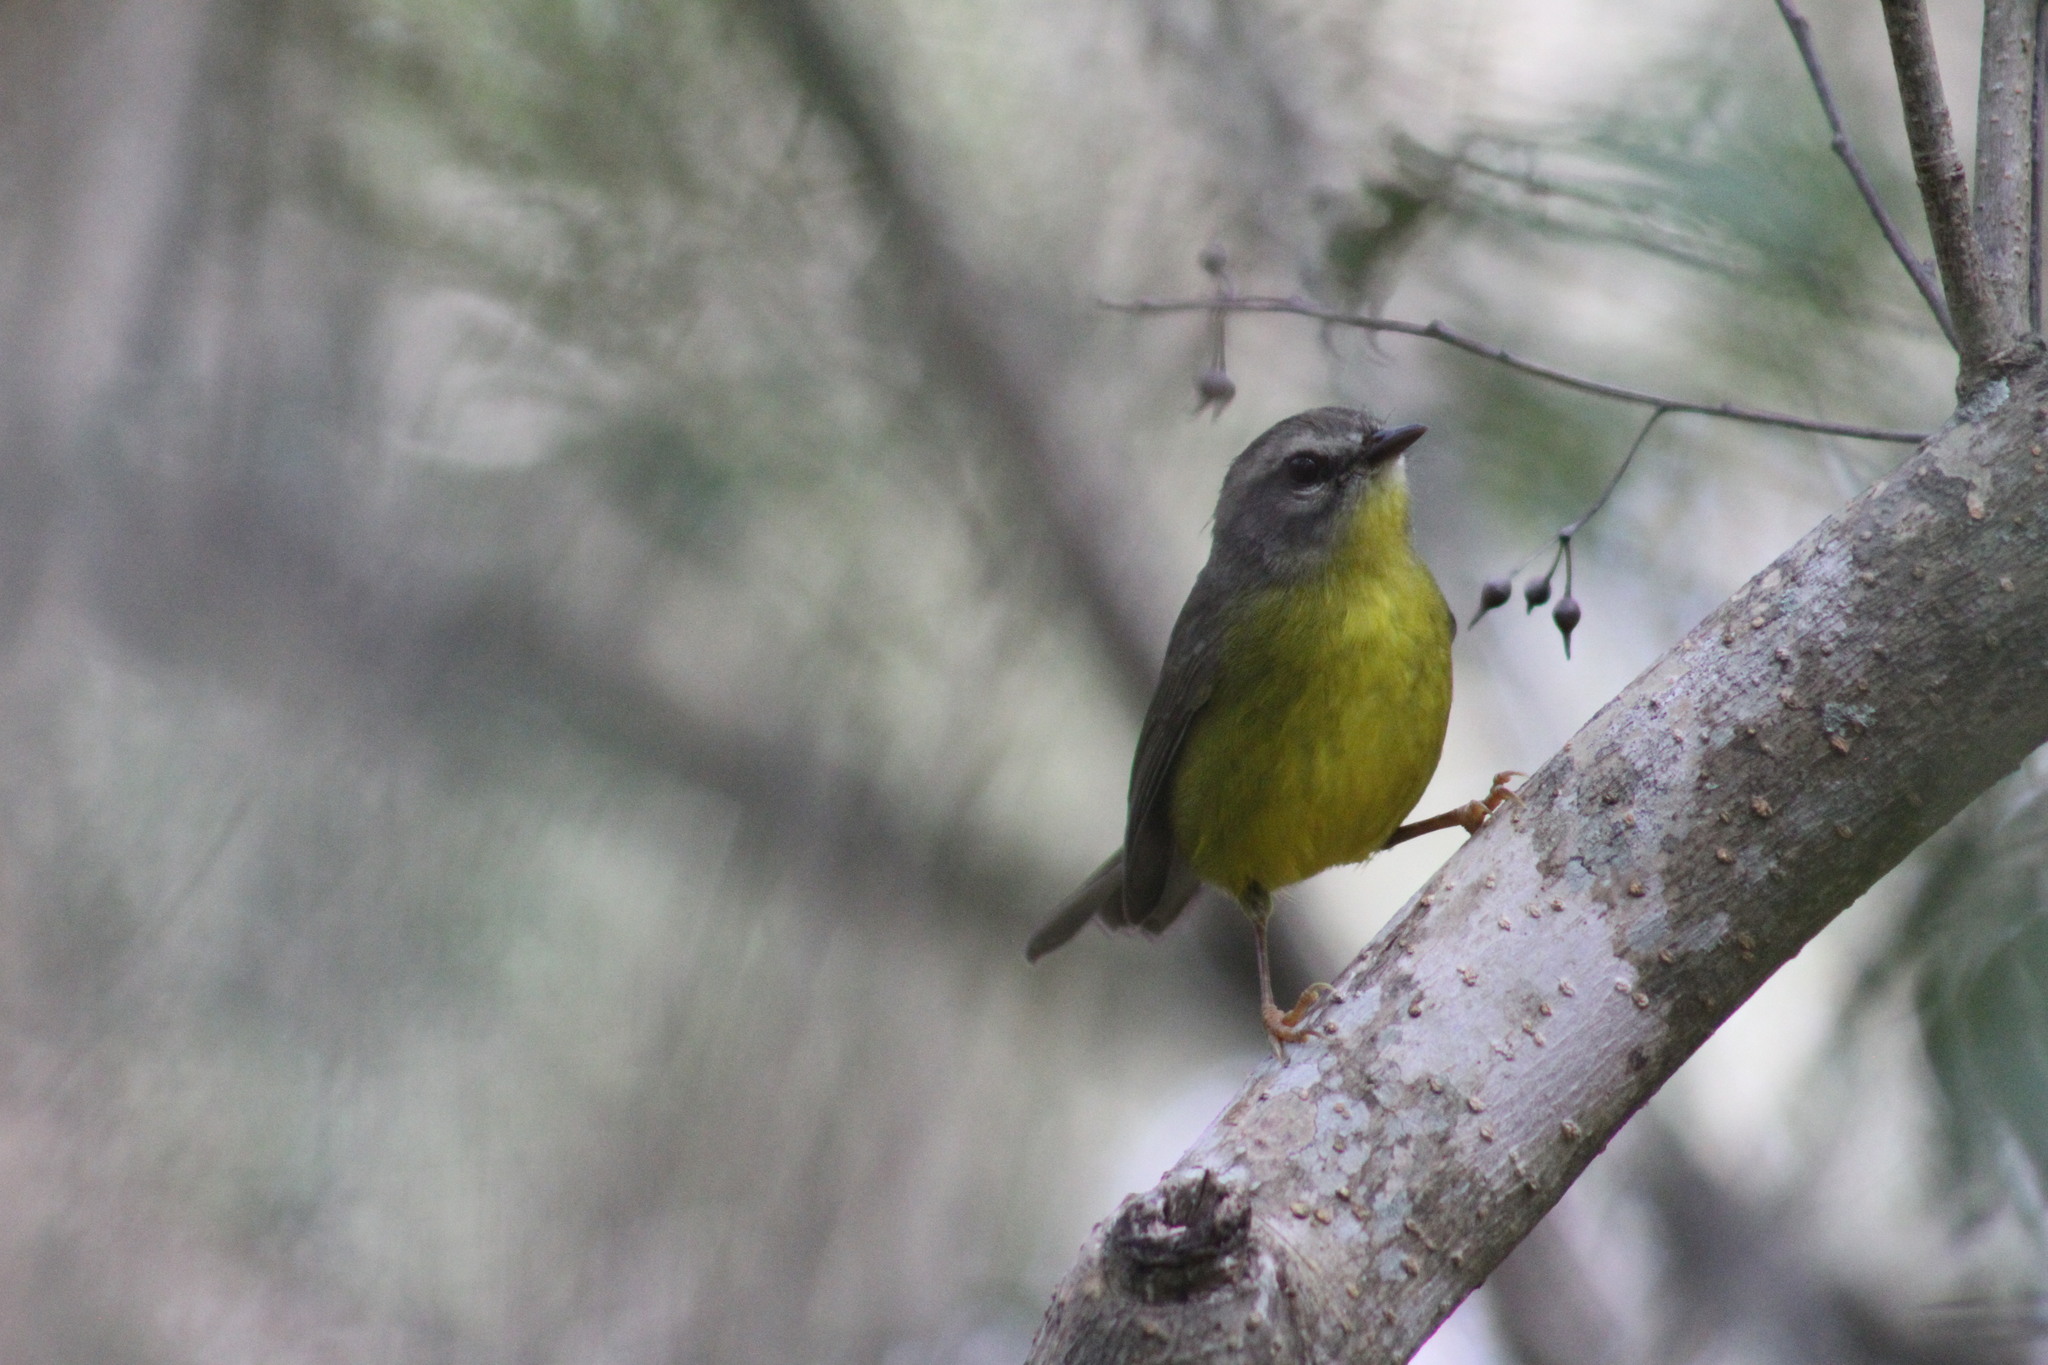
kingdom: Animalia
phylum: Chordata
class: Aves
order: Passeriformes
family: Parulidae
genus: Basileuterus
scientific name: Basileuterus culicivorus
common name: Golden-crowned warbler
